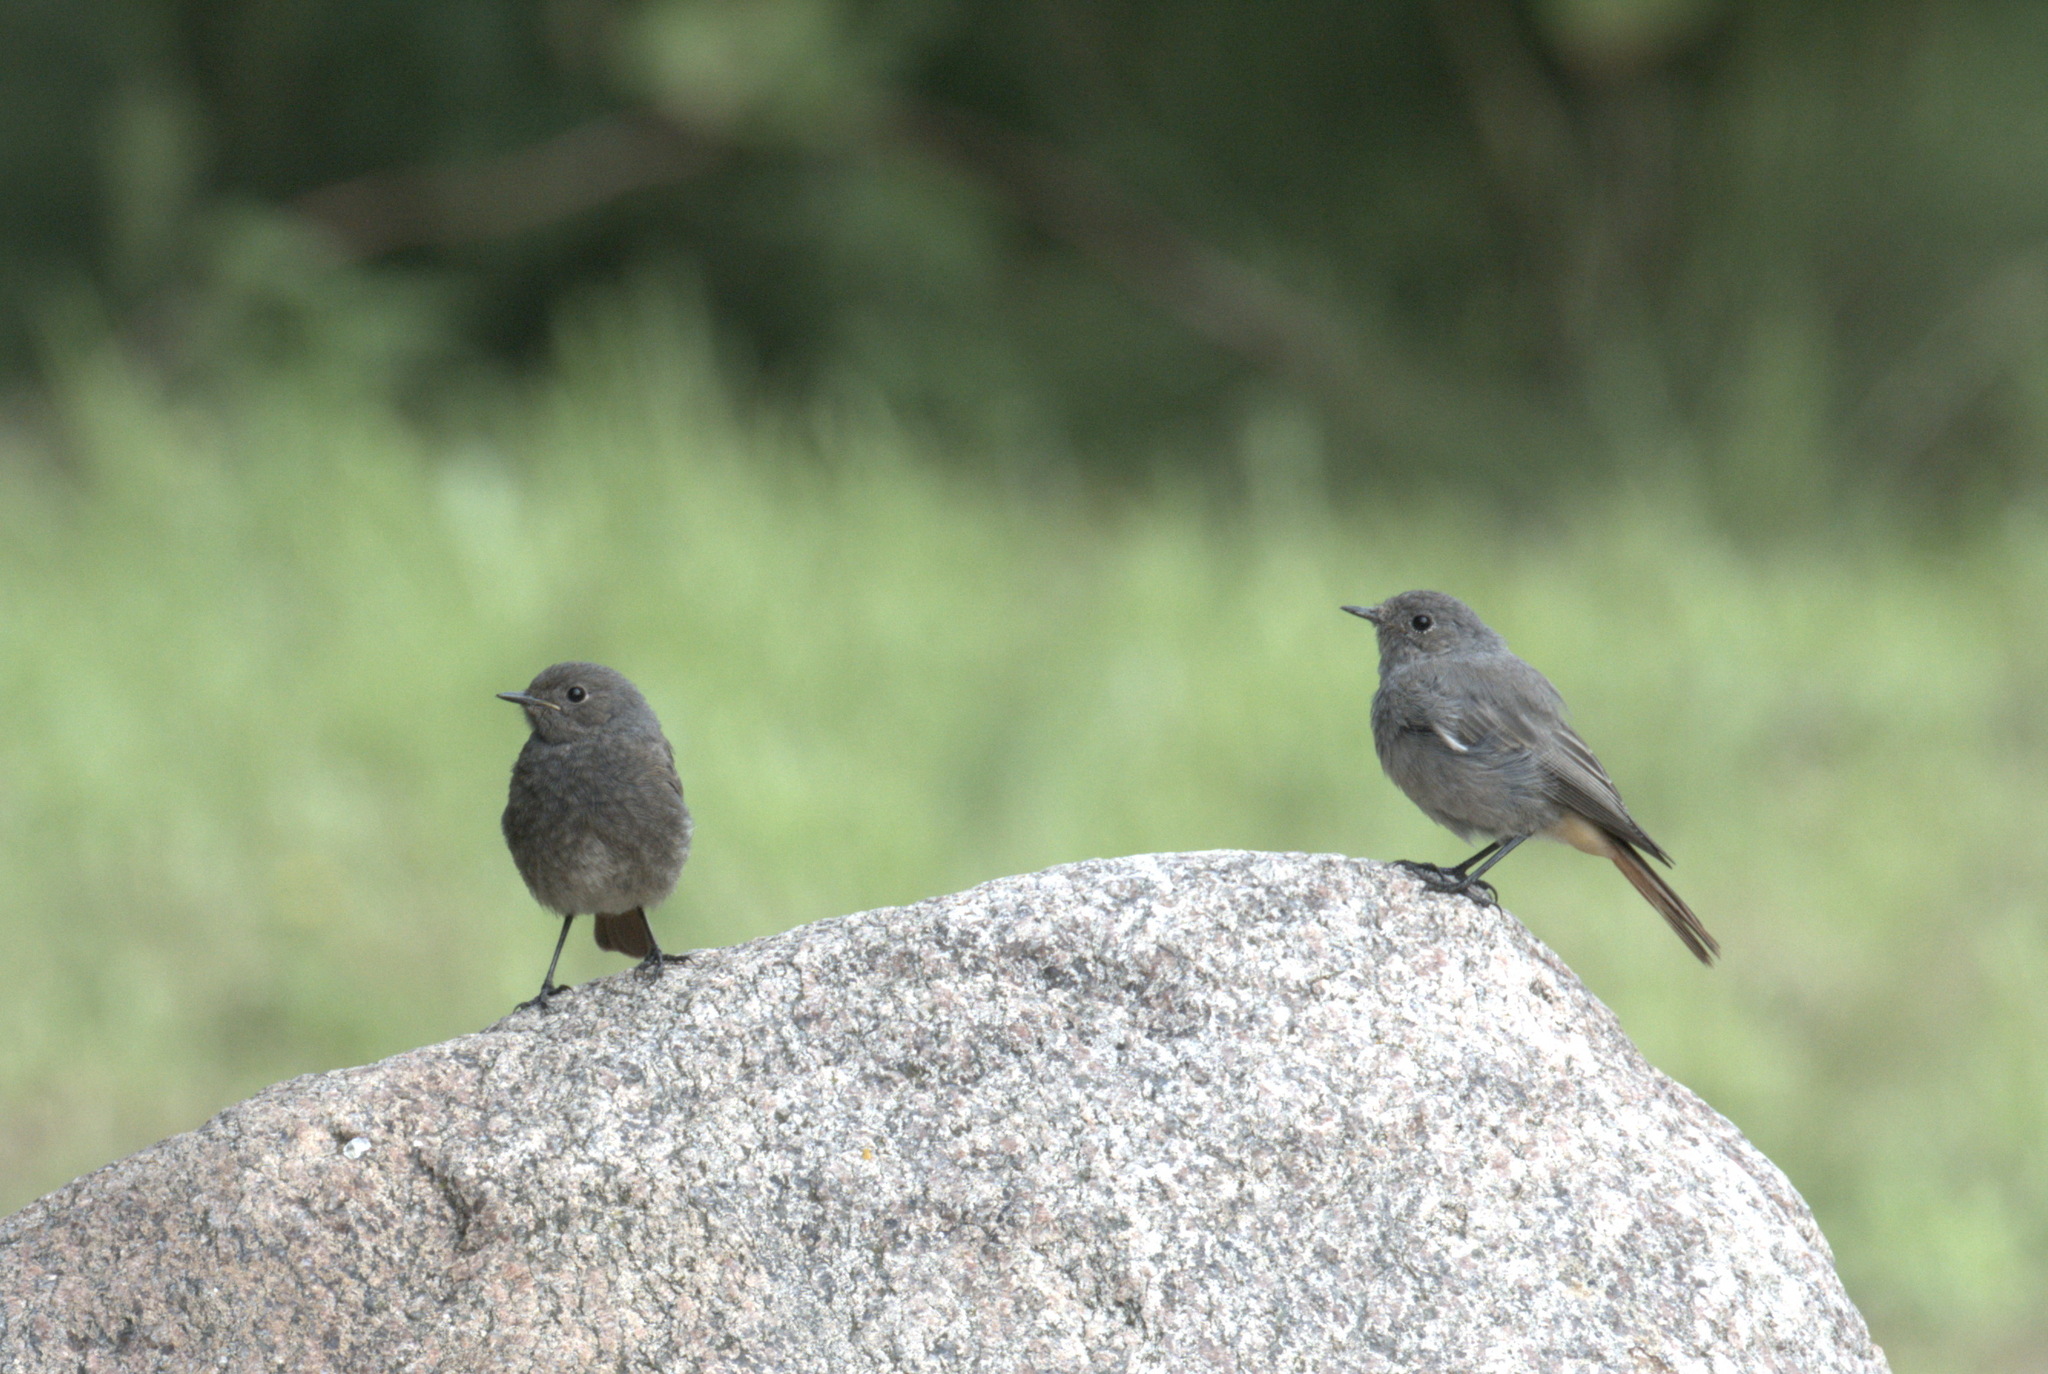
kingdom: Animalia
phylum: Chordata
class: Aves
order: Passeriformes
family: Muscicapidae
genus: Phoenicurus
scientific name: Phoenicurus ochruros
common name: Black redstart
